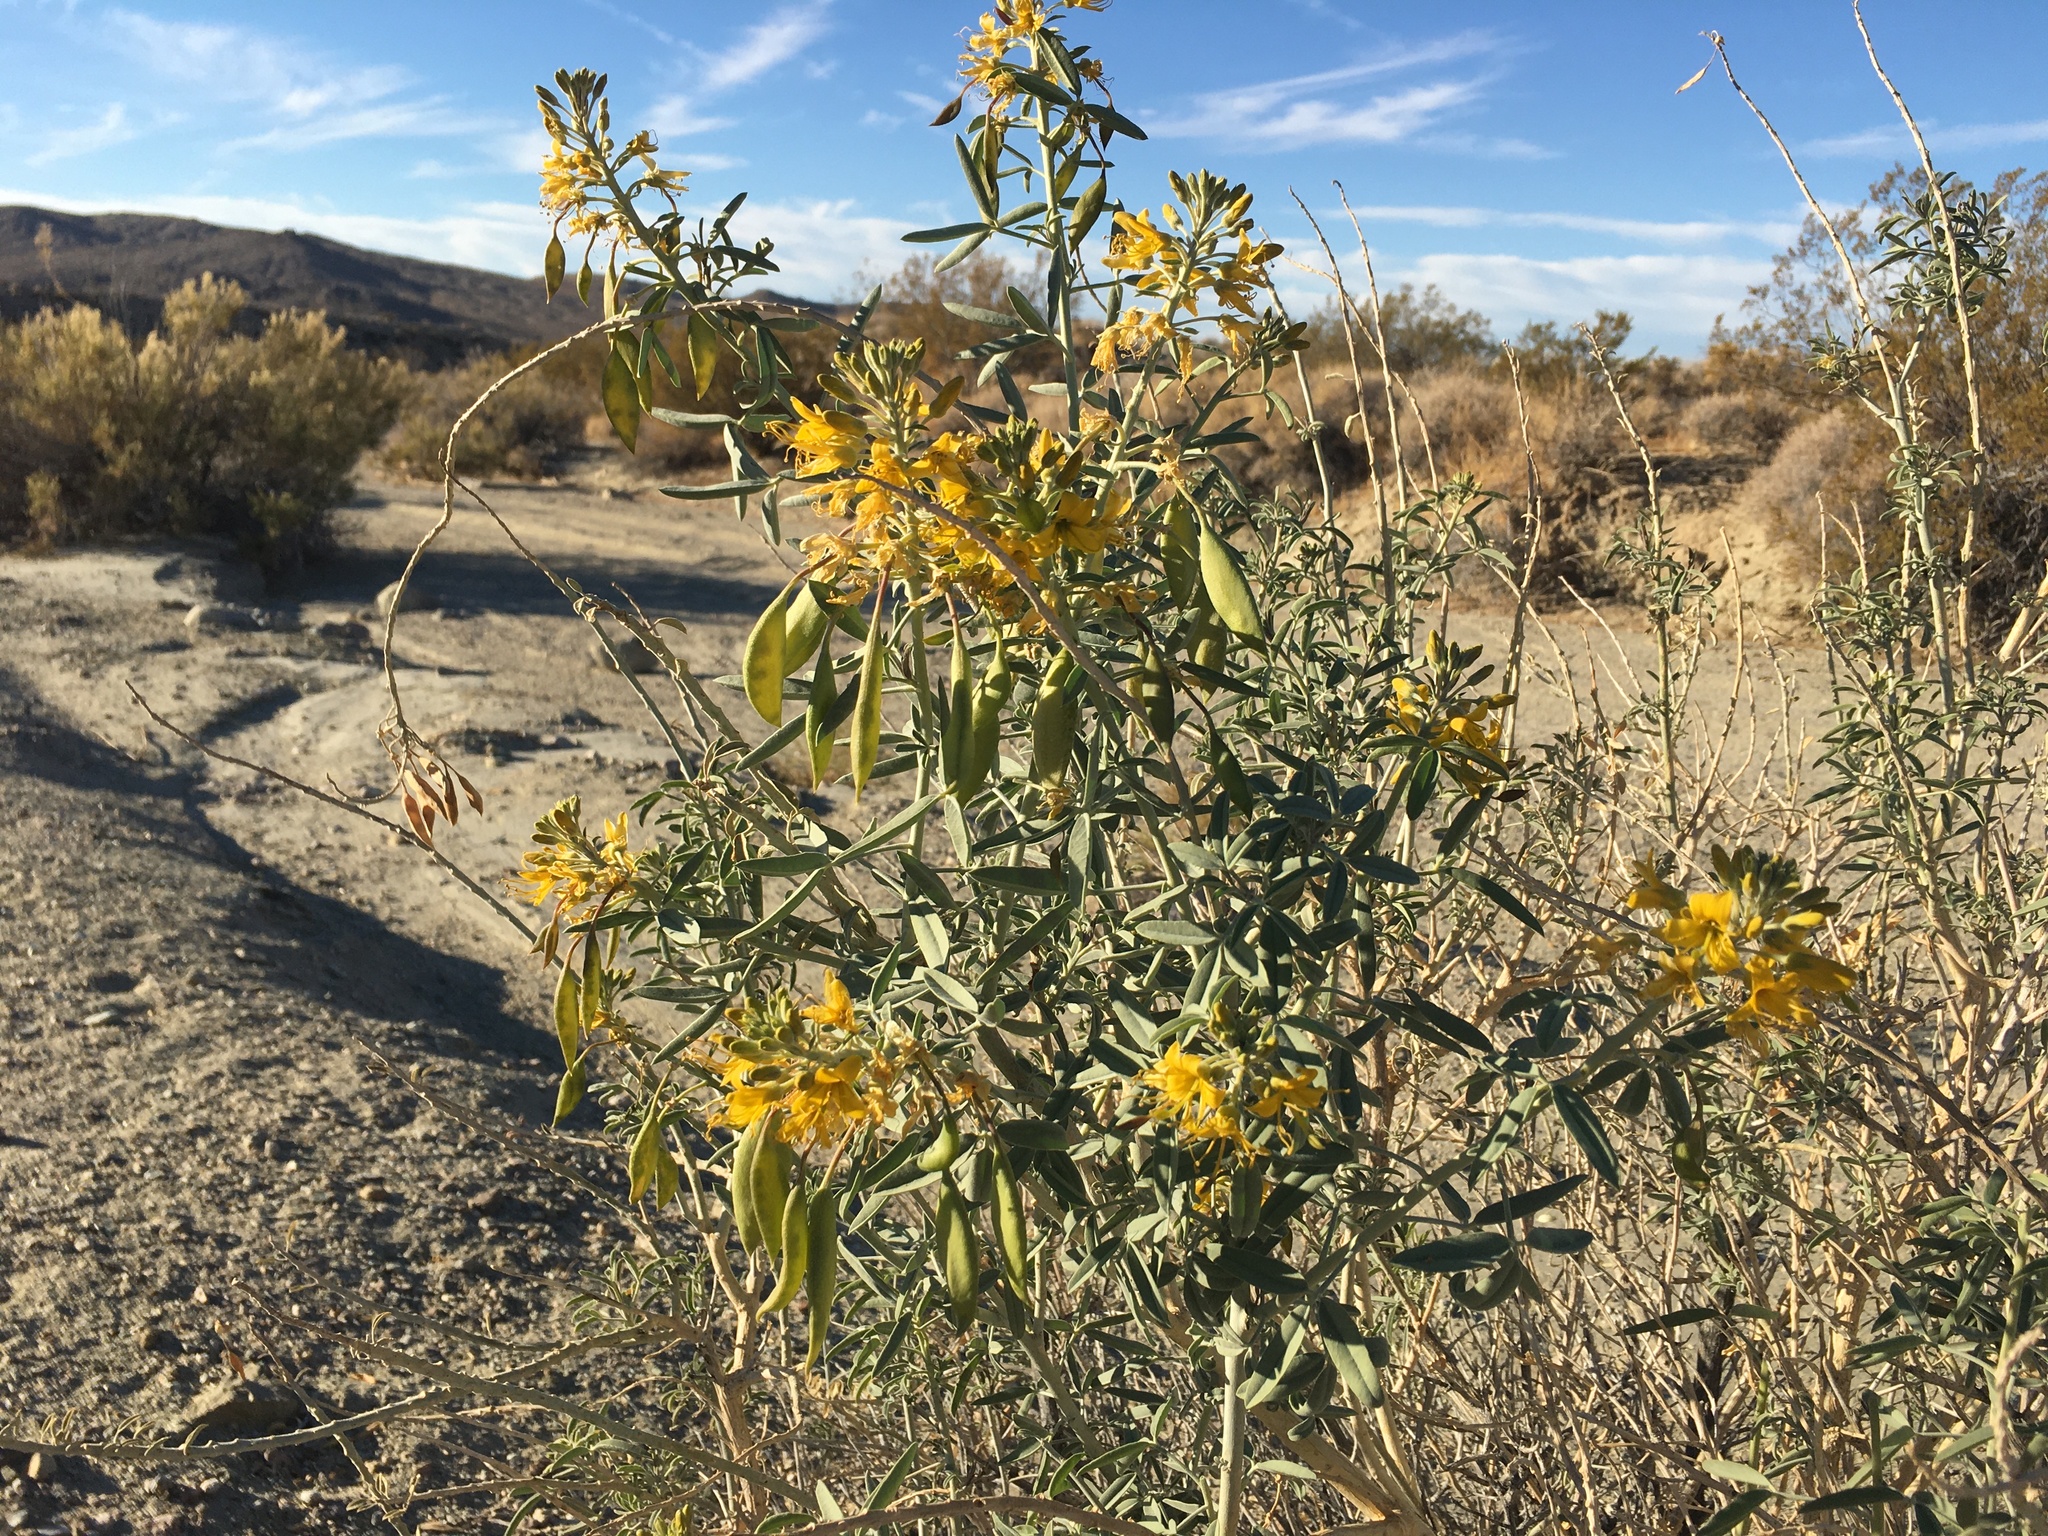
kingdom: Plantae
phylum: Tracheophyta
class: Magnoliopsida
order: Brassicales
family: Cleomaceae
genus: Cleomella
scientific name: Cleomella arborea
